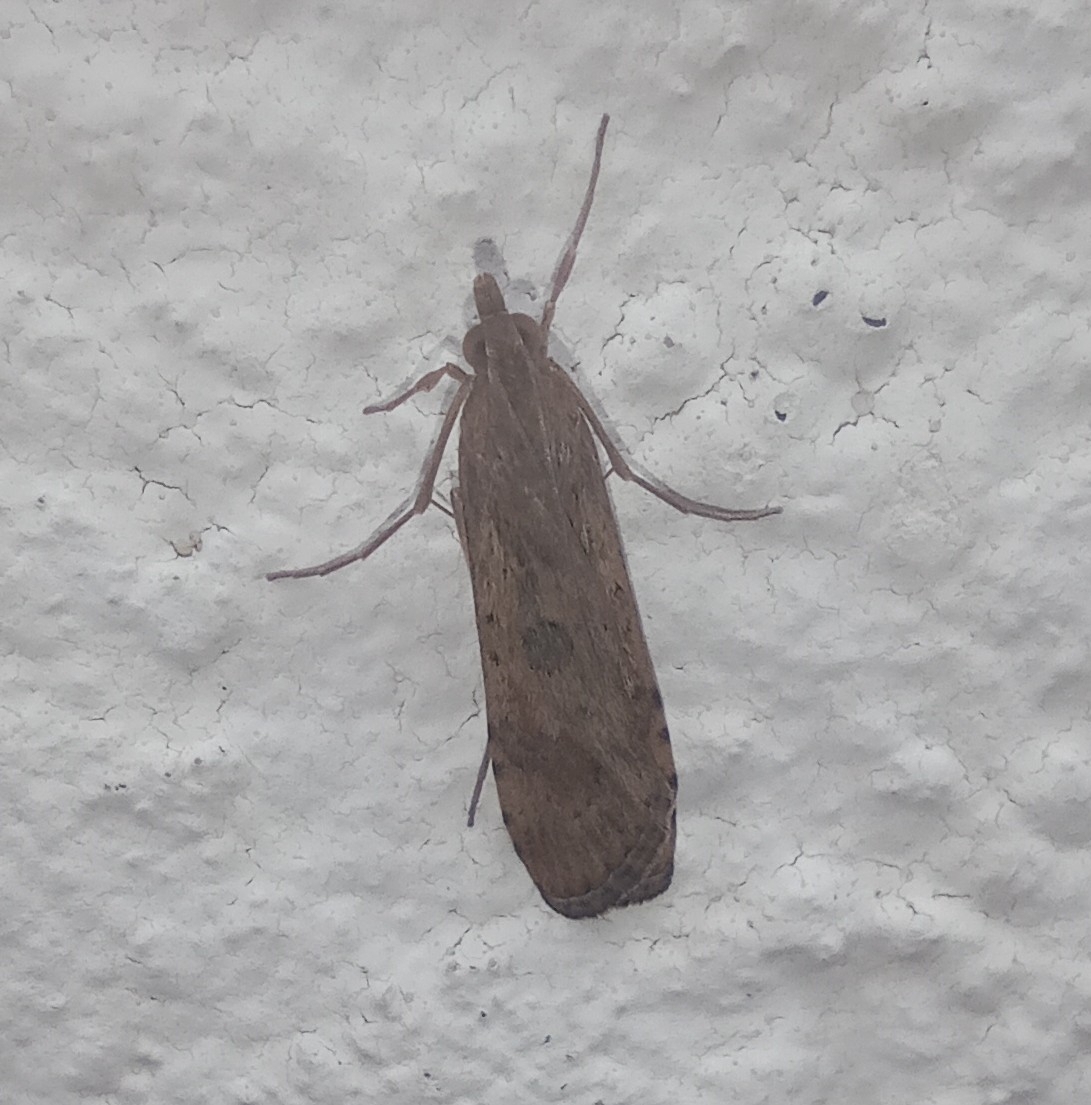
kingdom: Animalia
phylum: Arthropoda
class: Insecta
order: Lepidoptera
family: Crambidae
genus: Nomophila
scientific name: Nomophila noctuella
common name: Rush veneer
